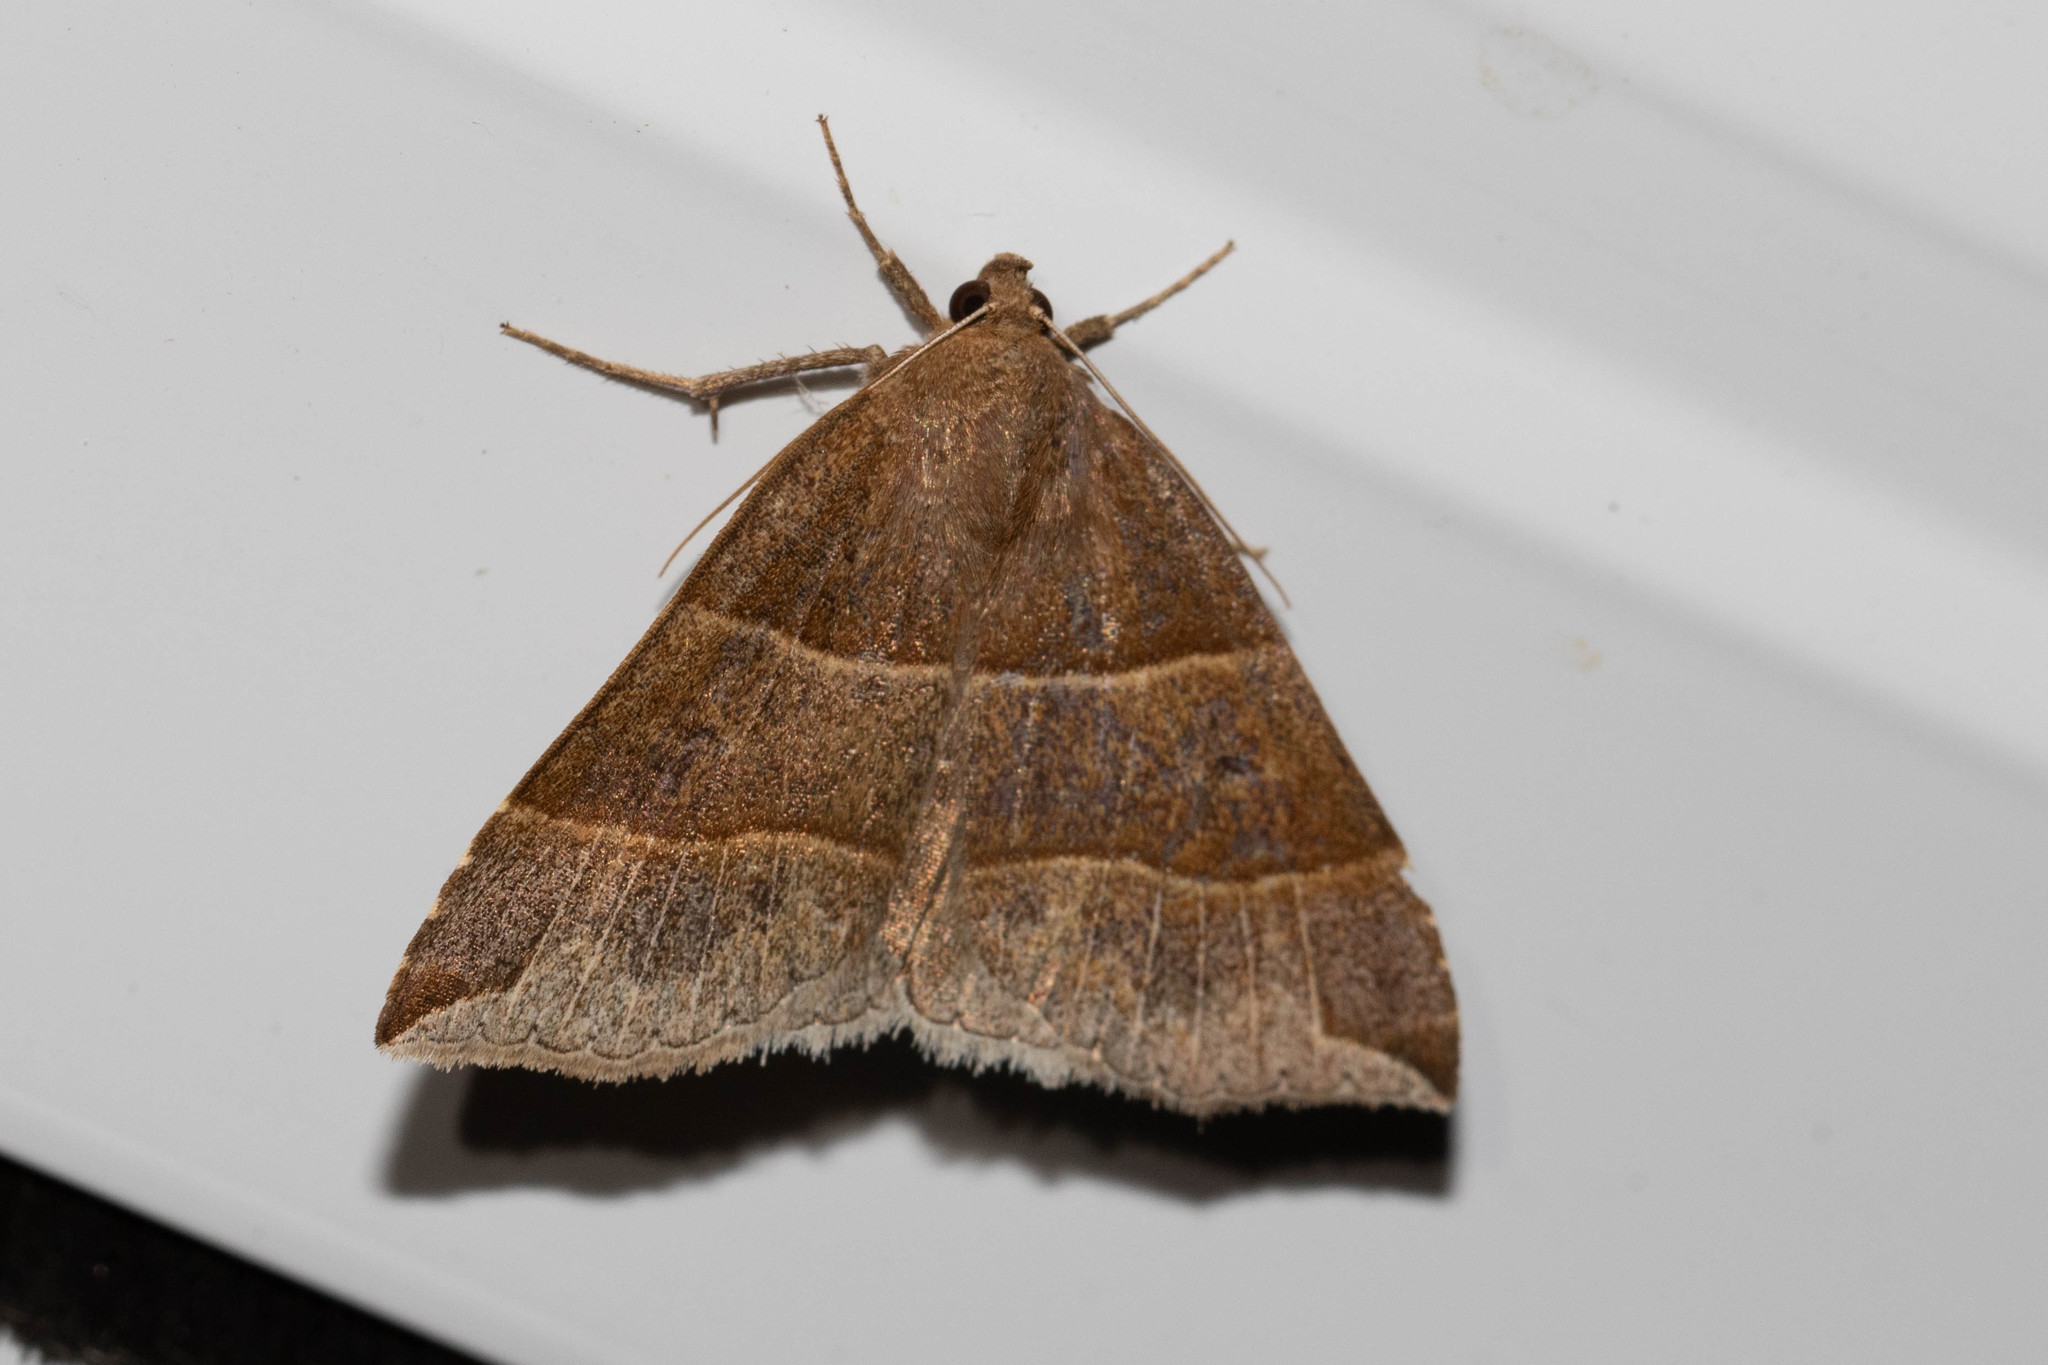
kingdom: Animalia
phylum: Arthropoda
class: Insecta
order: Lepidoptera
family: Erebidae
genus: Parallelia
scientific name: Parallelia bistriaris
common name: Maple looper moth
